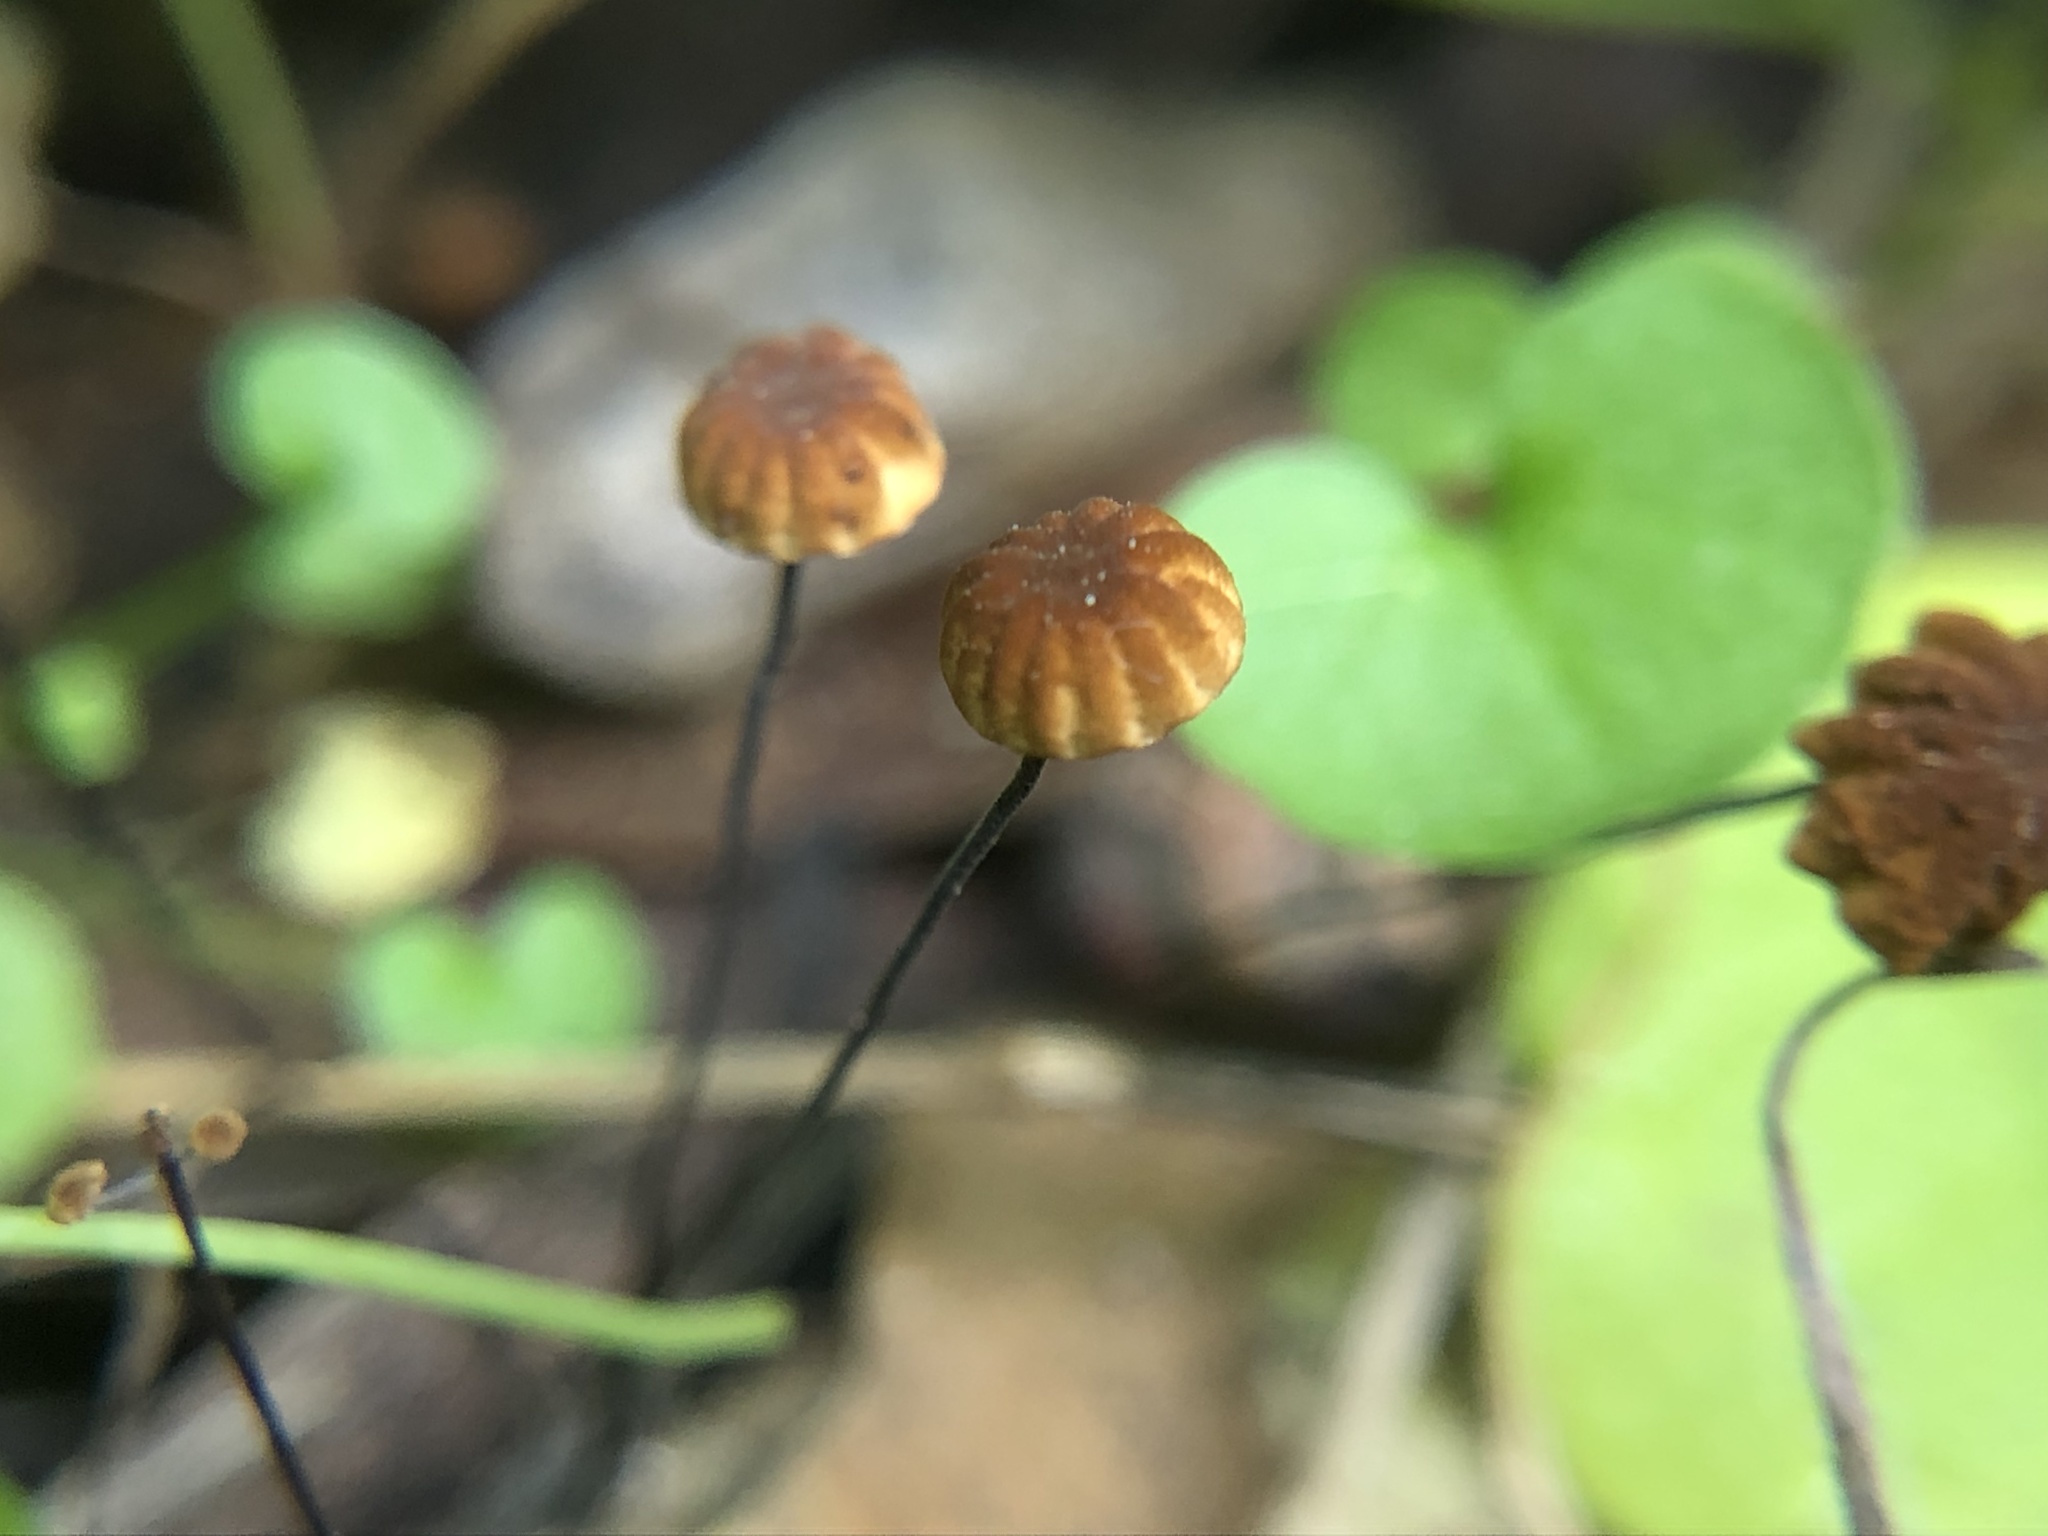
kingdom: Fungi
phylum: Basidiomycota
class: Agaricomycetes
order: Agaricales
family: Physalacriaceae
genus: Cryptomarasmius
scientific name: Cryptomarasmius corbariensis
